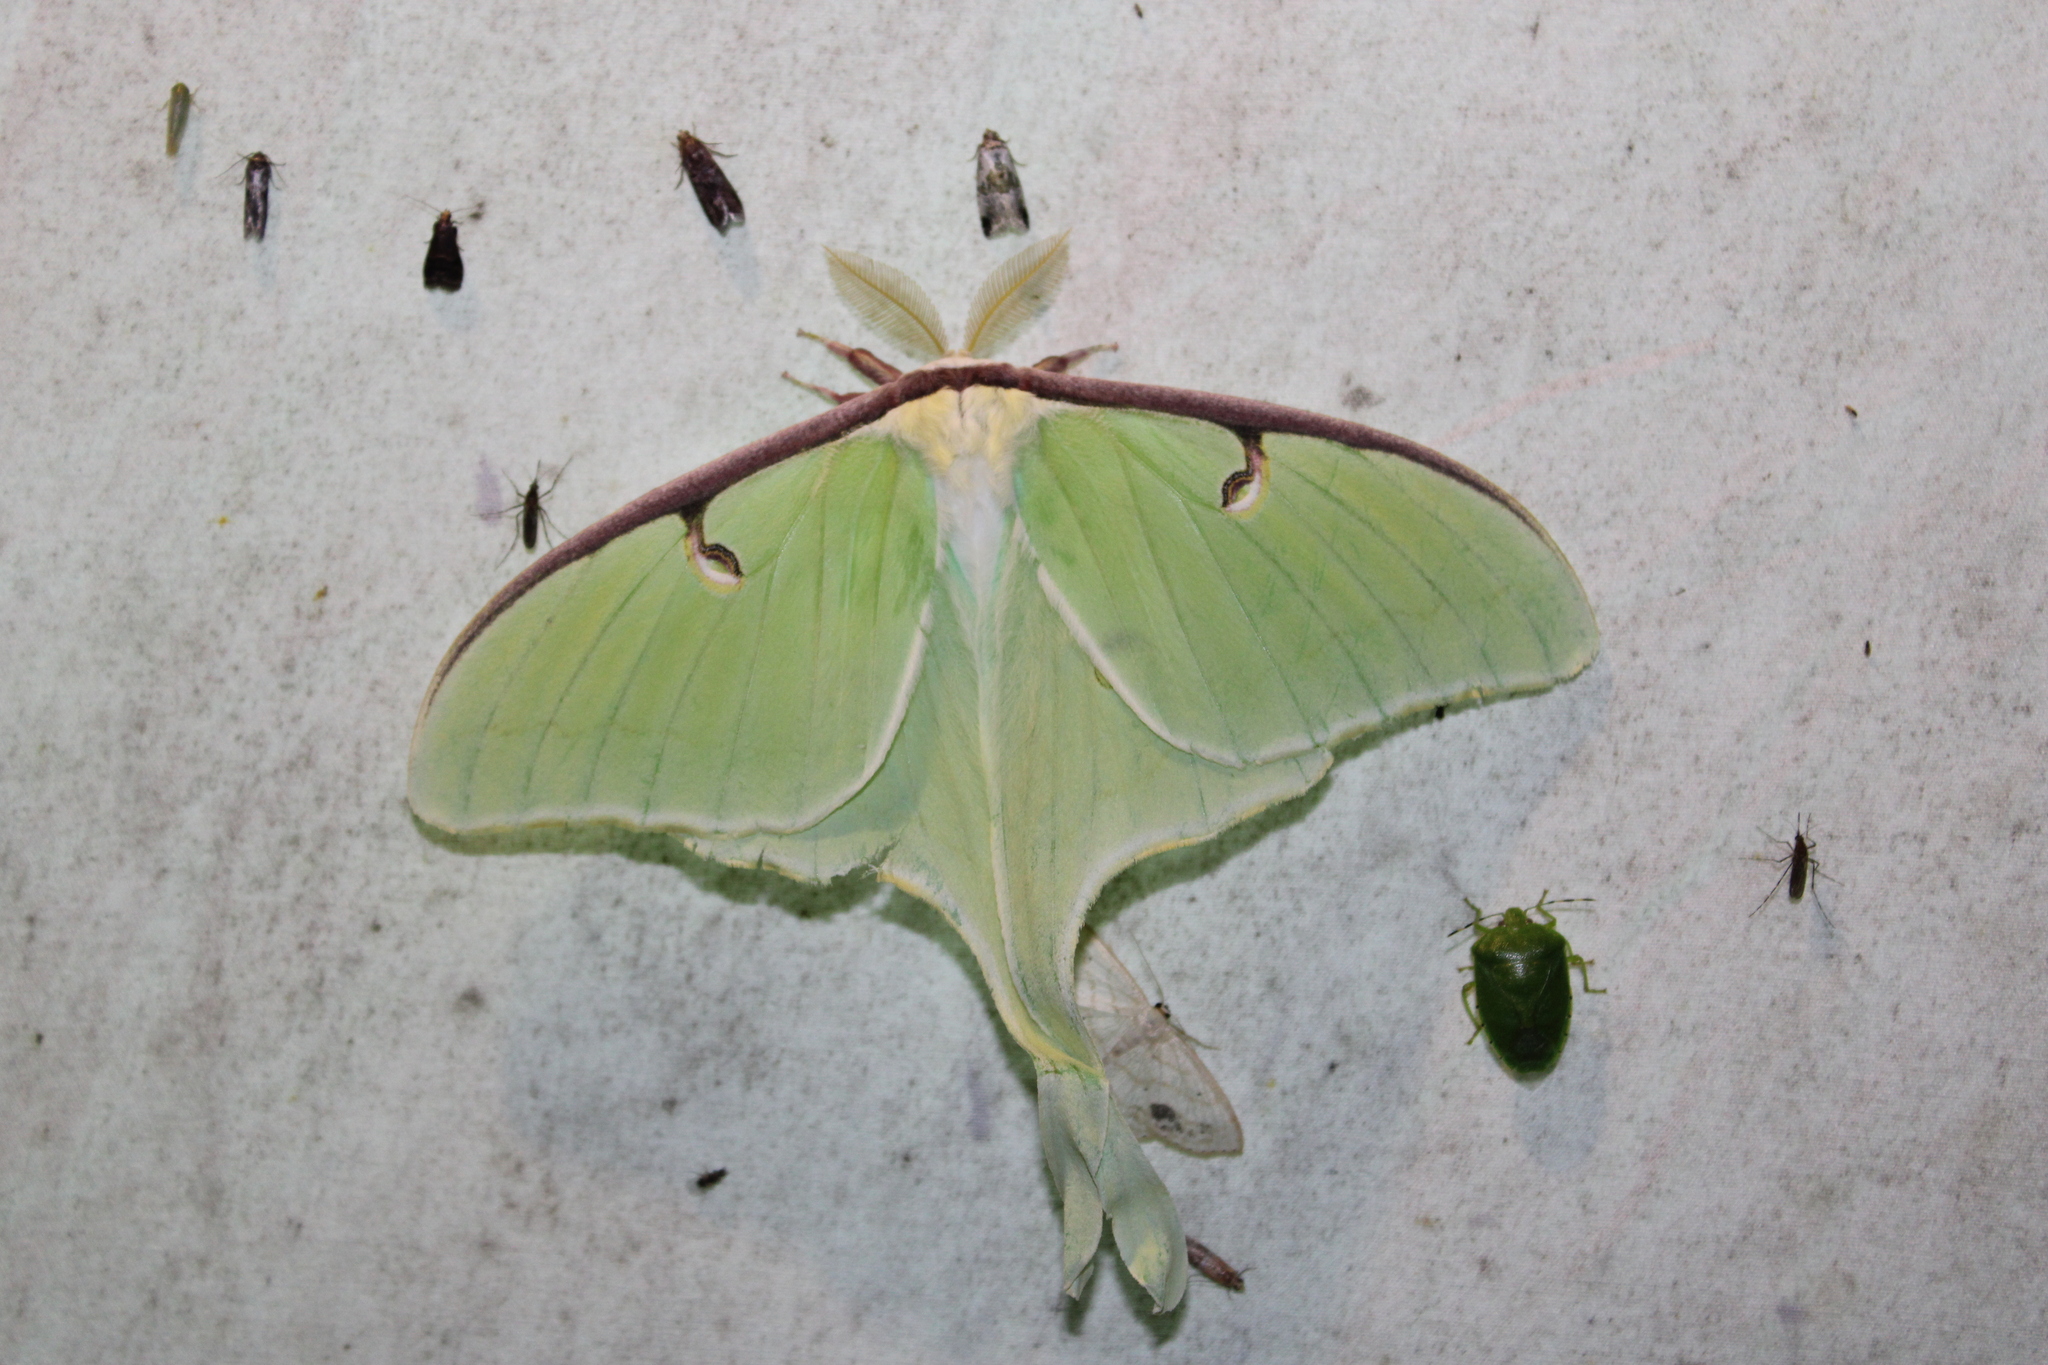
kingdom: Animalia
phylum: Arthropoda
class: Insecta
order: Lepidoptera
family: Saturniidae
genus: Actias
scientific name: Actias luna
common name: Luna moth
